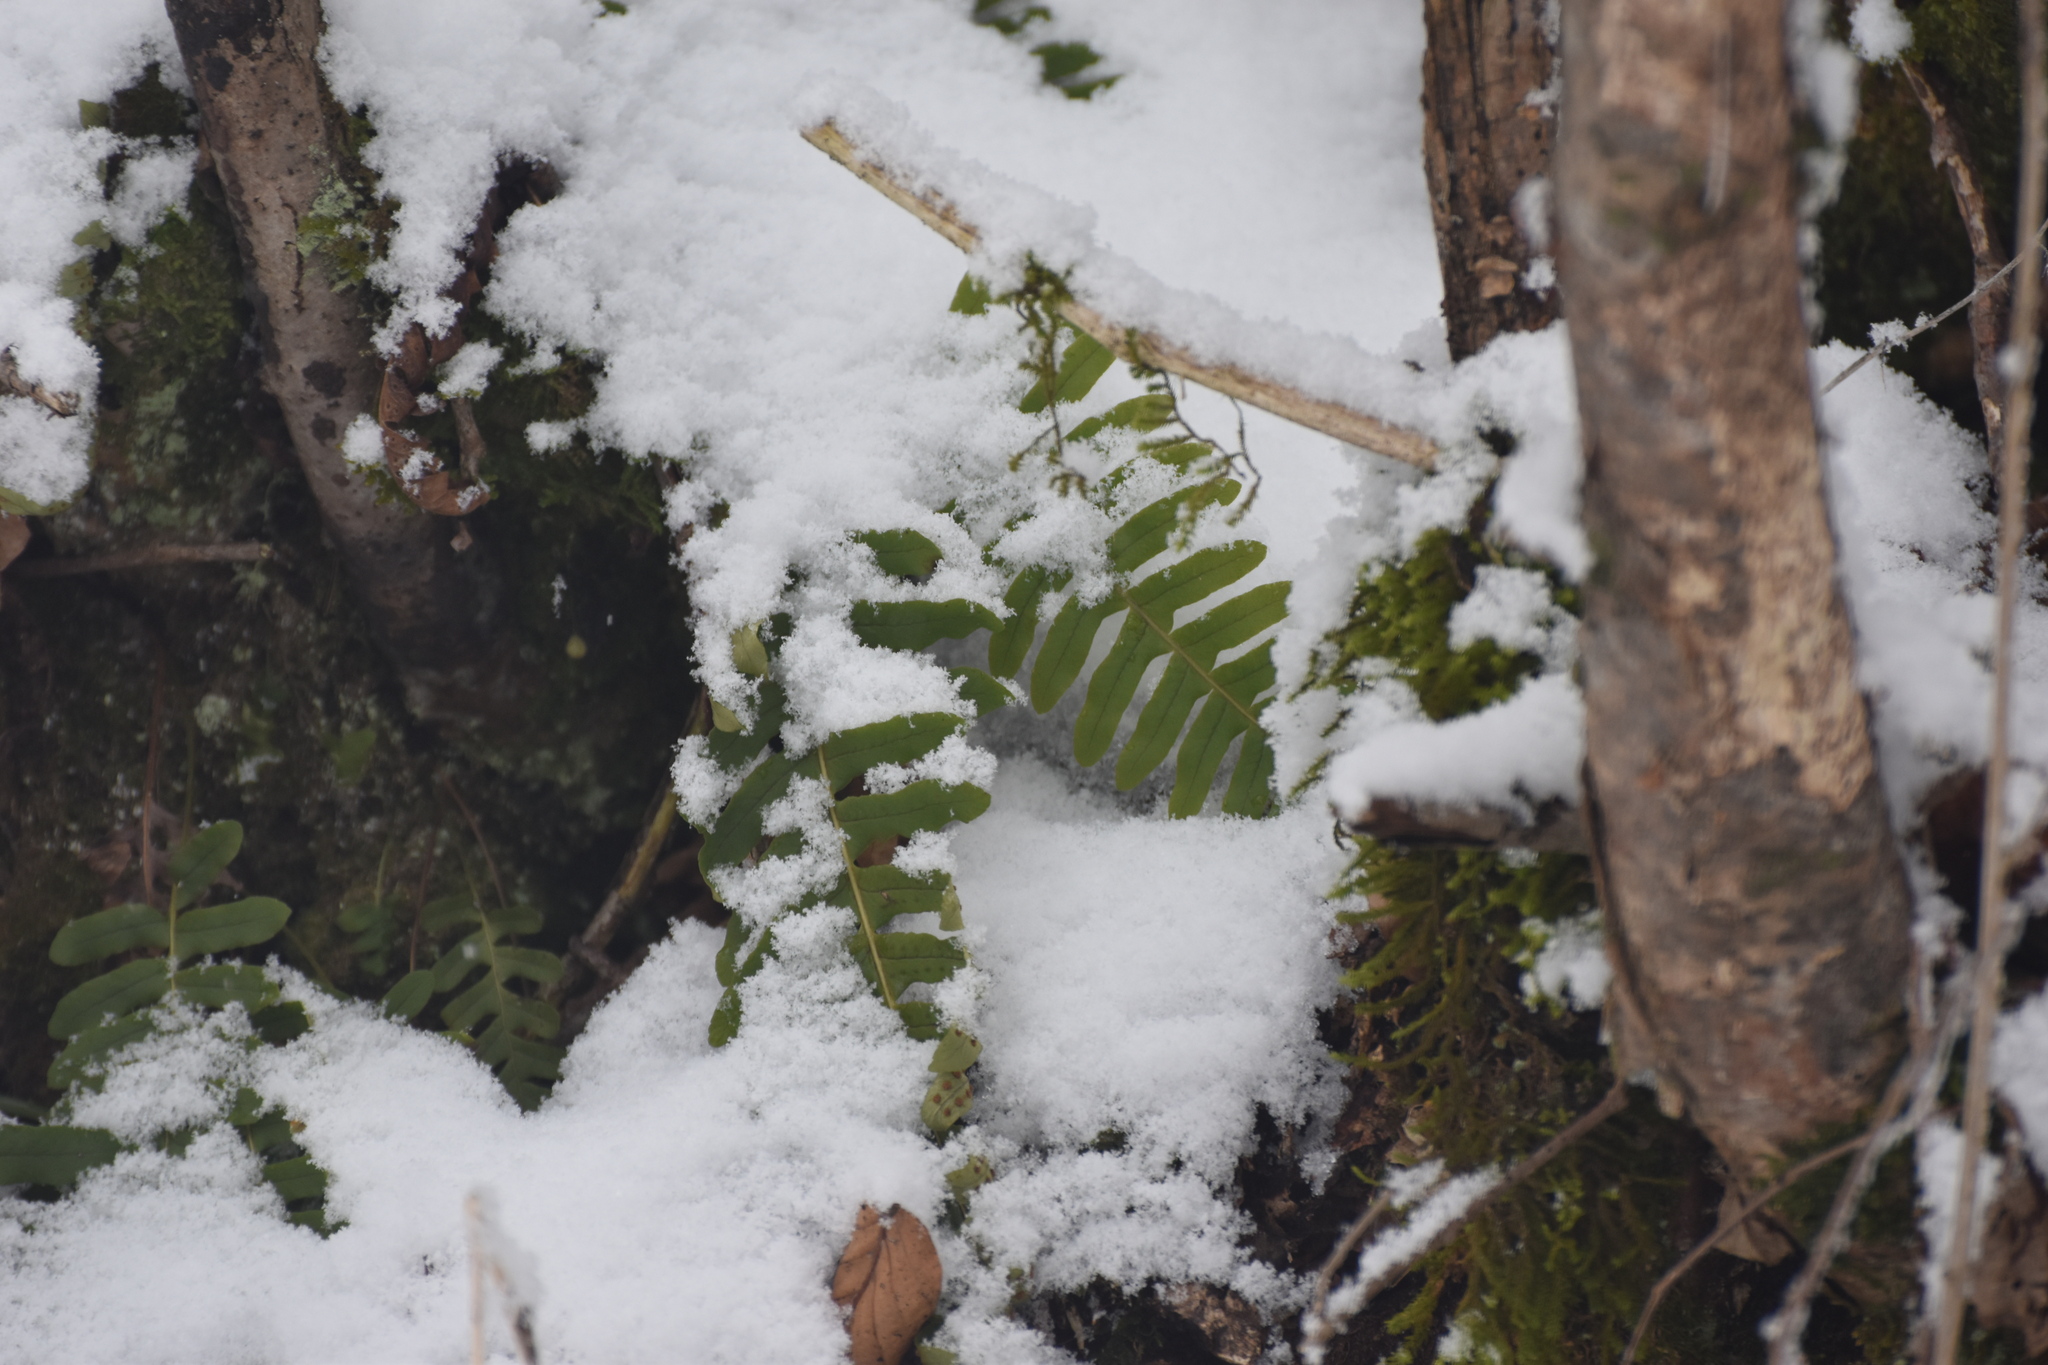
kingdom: Plantae
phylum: Tracheophyta
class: Polypodiopsida
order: Polypodiales
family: Polypodiaceae
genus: Polypodium
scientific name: Polypodium vulgare
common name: Common polypody
